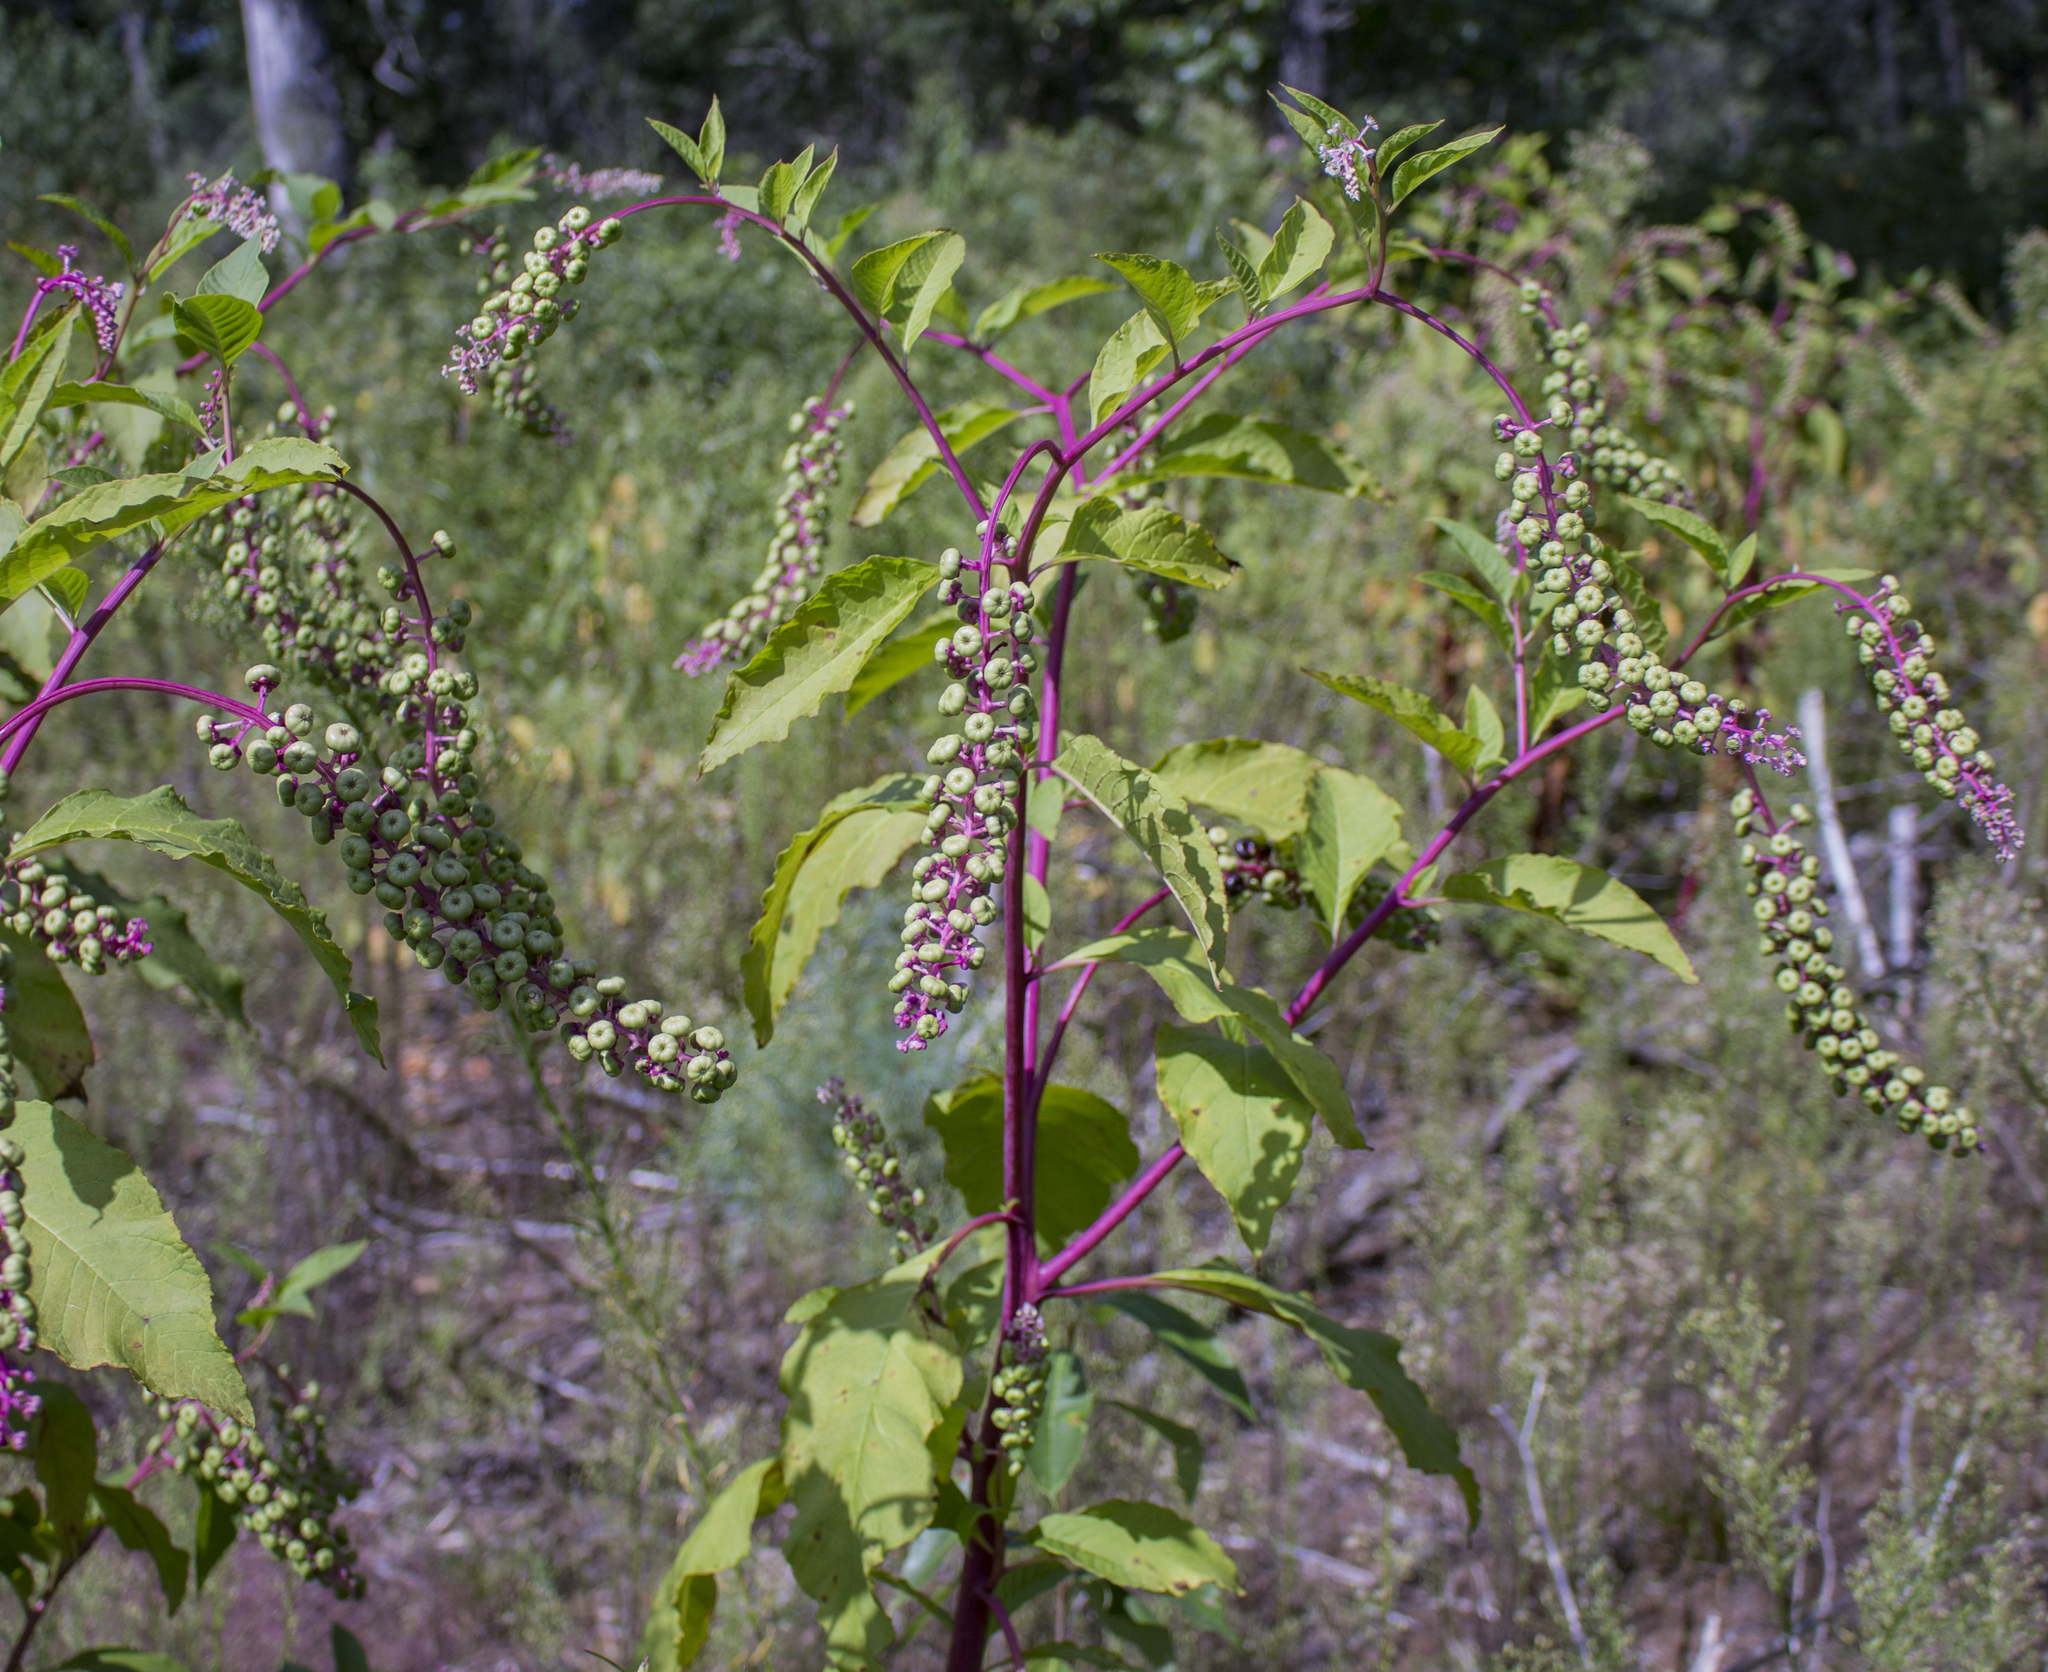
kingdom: Plantae
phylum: Tracheophyta
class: Magnoliopsida
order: Caryophyllales
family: Phytolaccaceae
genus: Phytolacca
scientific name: Phytolacca americana
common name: American pokeweed
